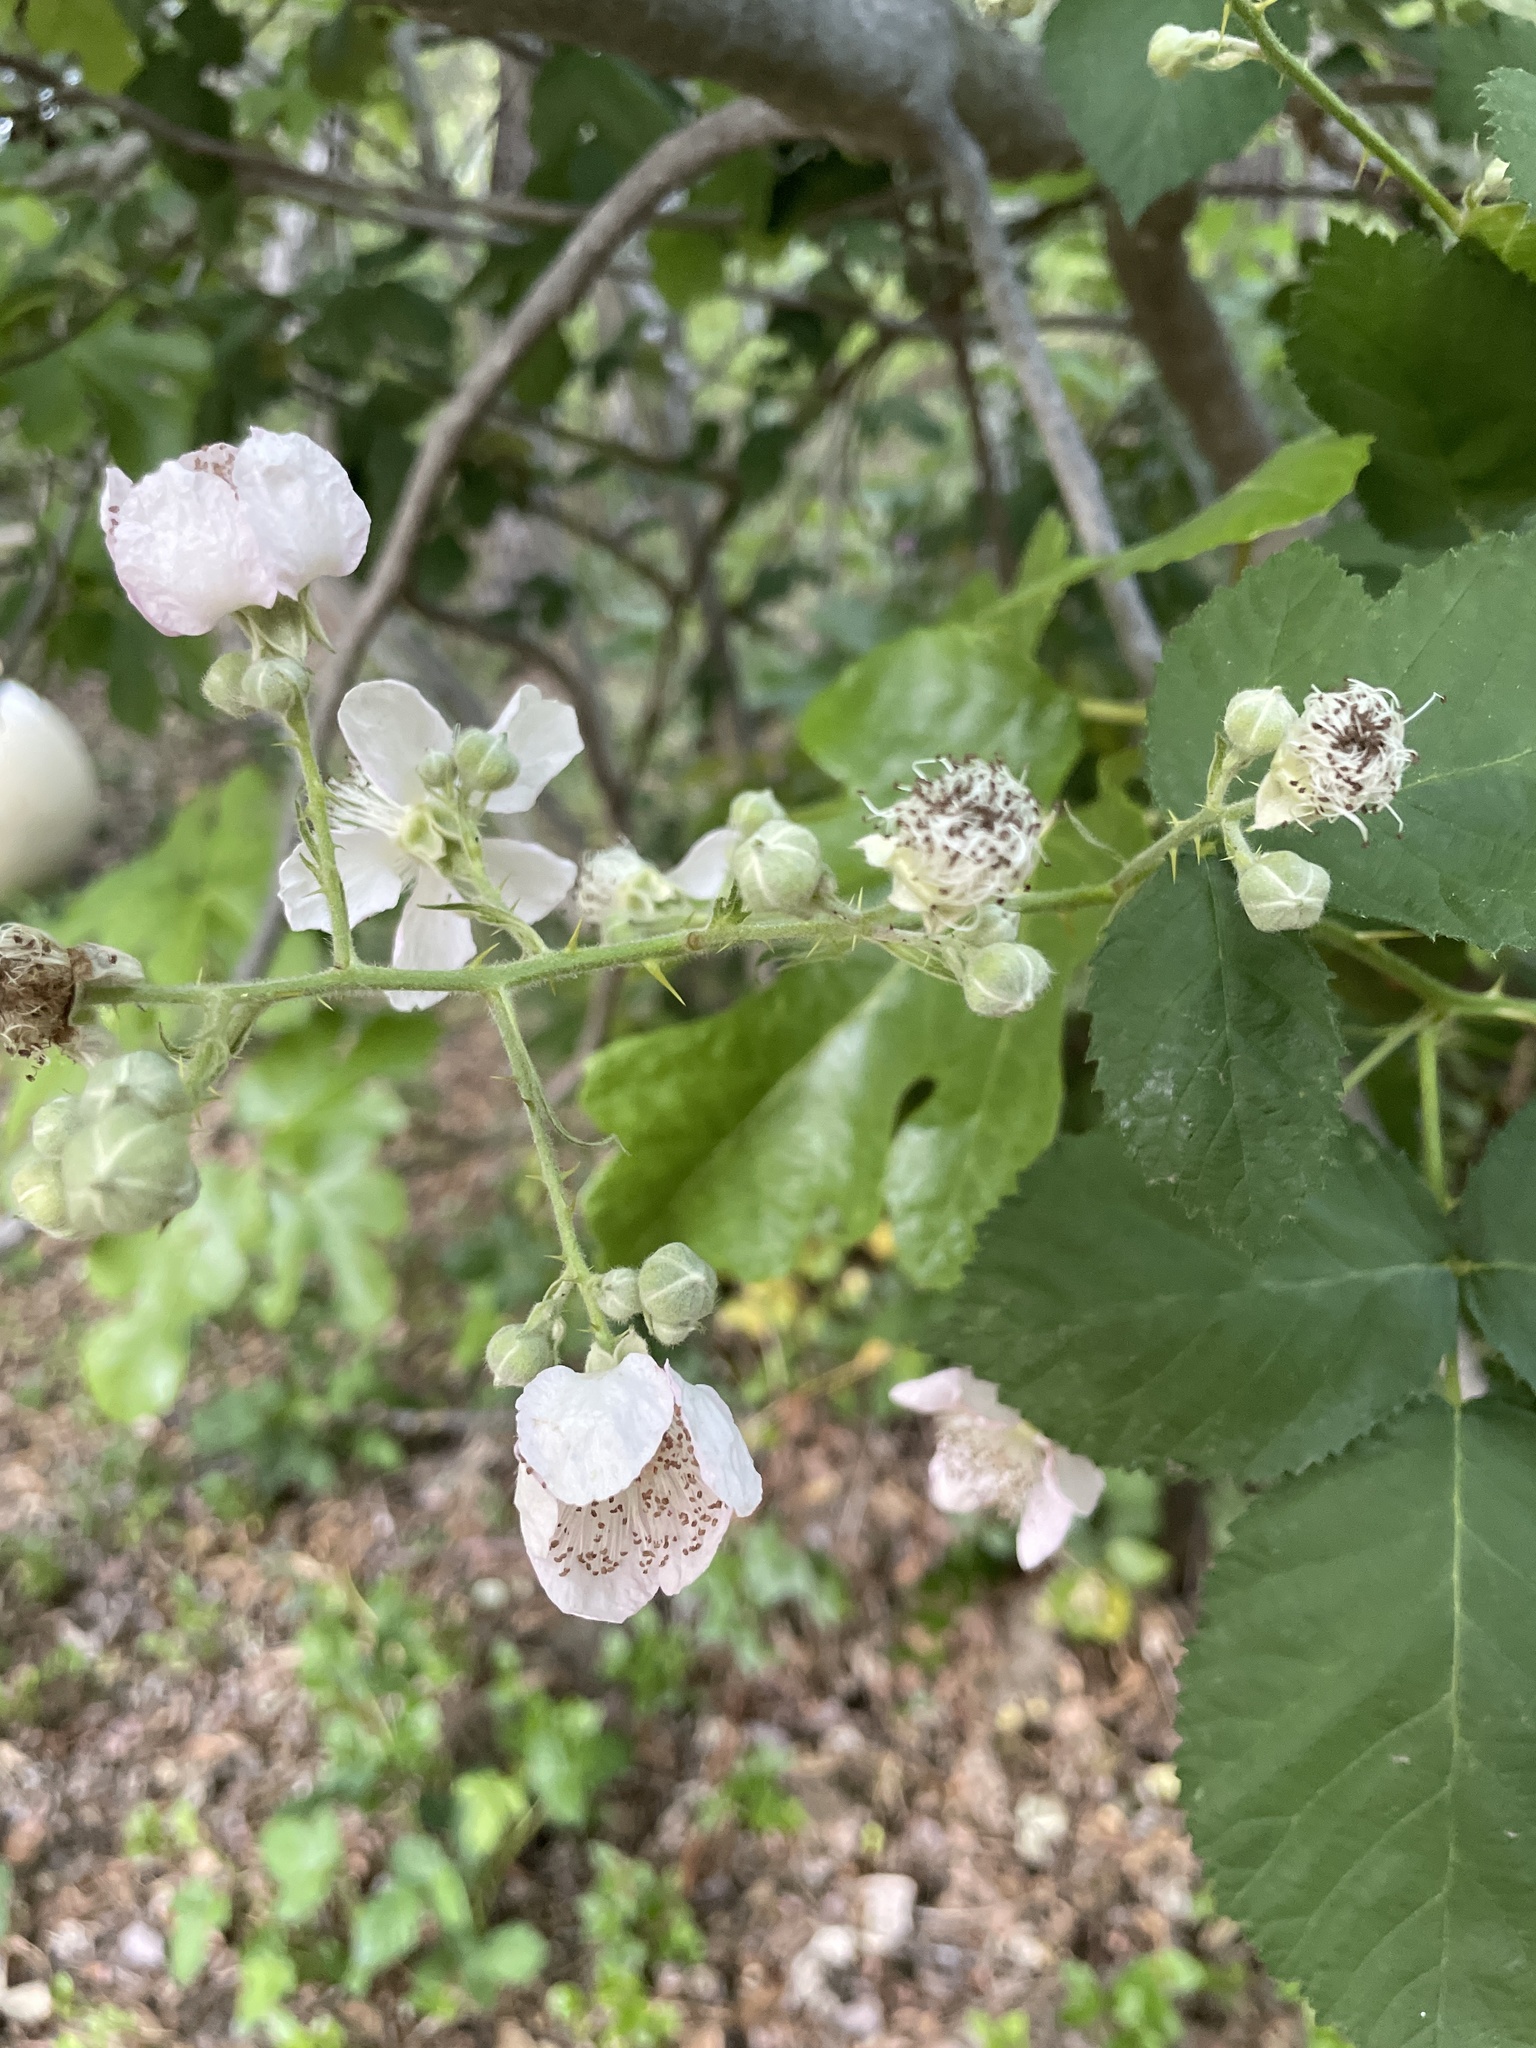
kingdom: Plantae
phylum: Tracheophyta
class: Magnoliopsida
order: Rosales
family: Rosaceae
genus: Rubus
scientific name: Rubus armeniacus
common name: Himalayan blackberry
